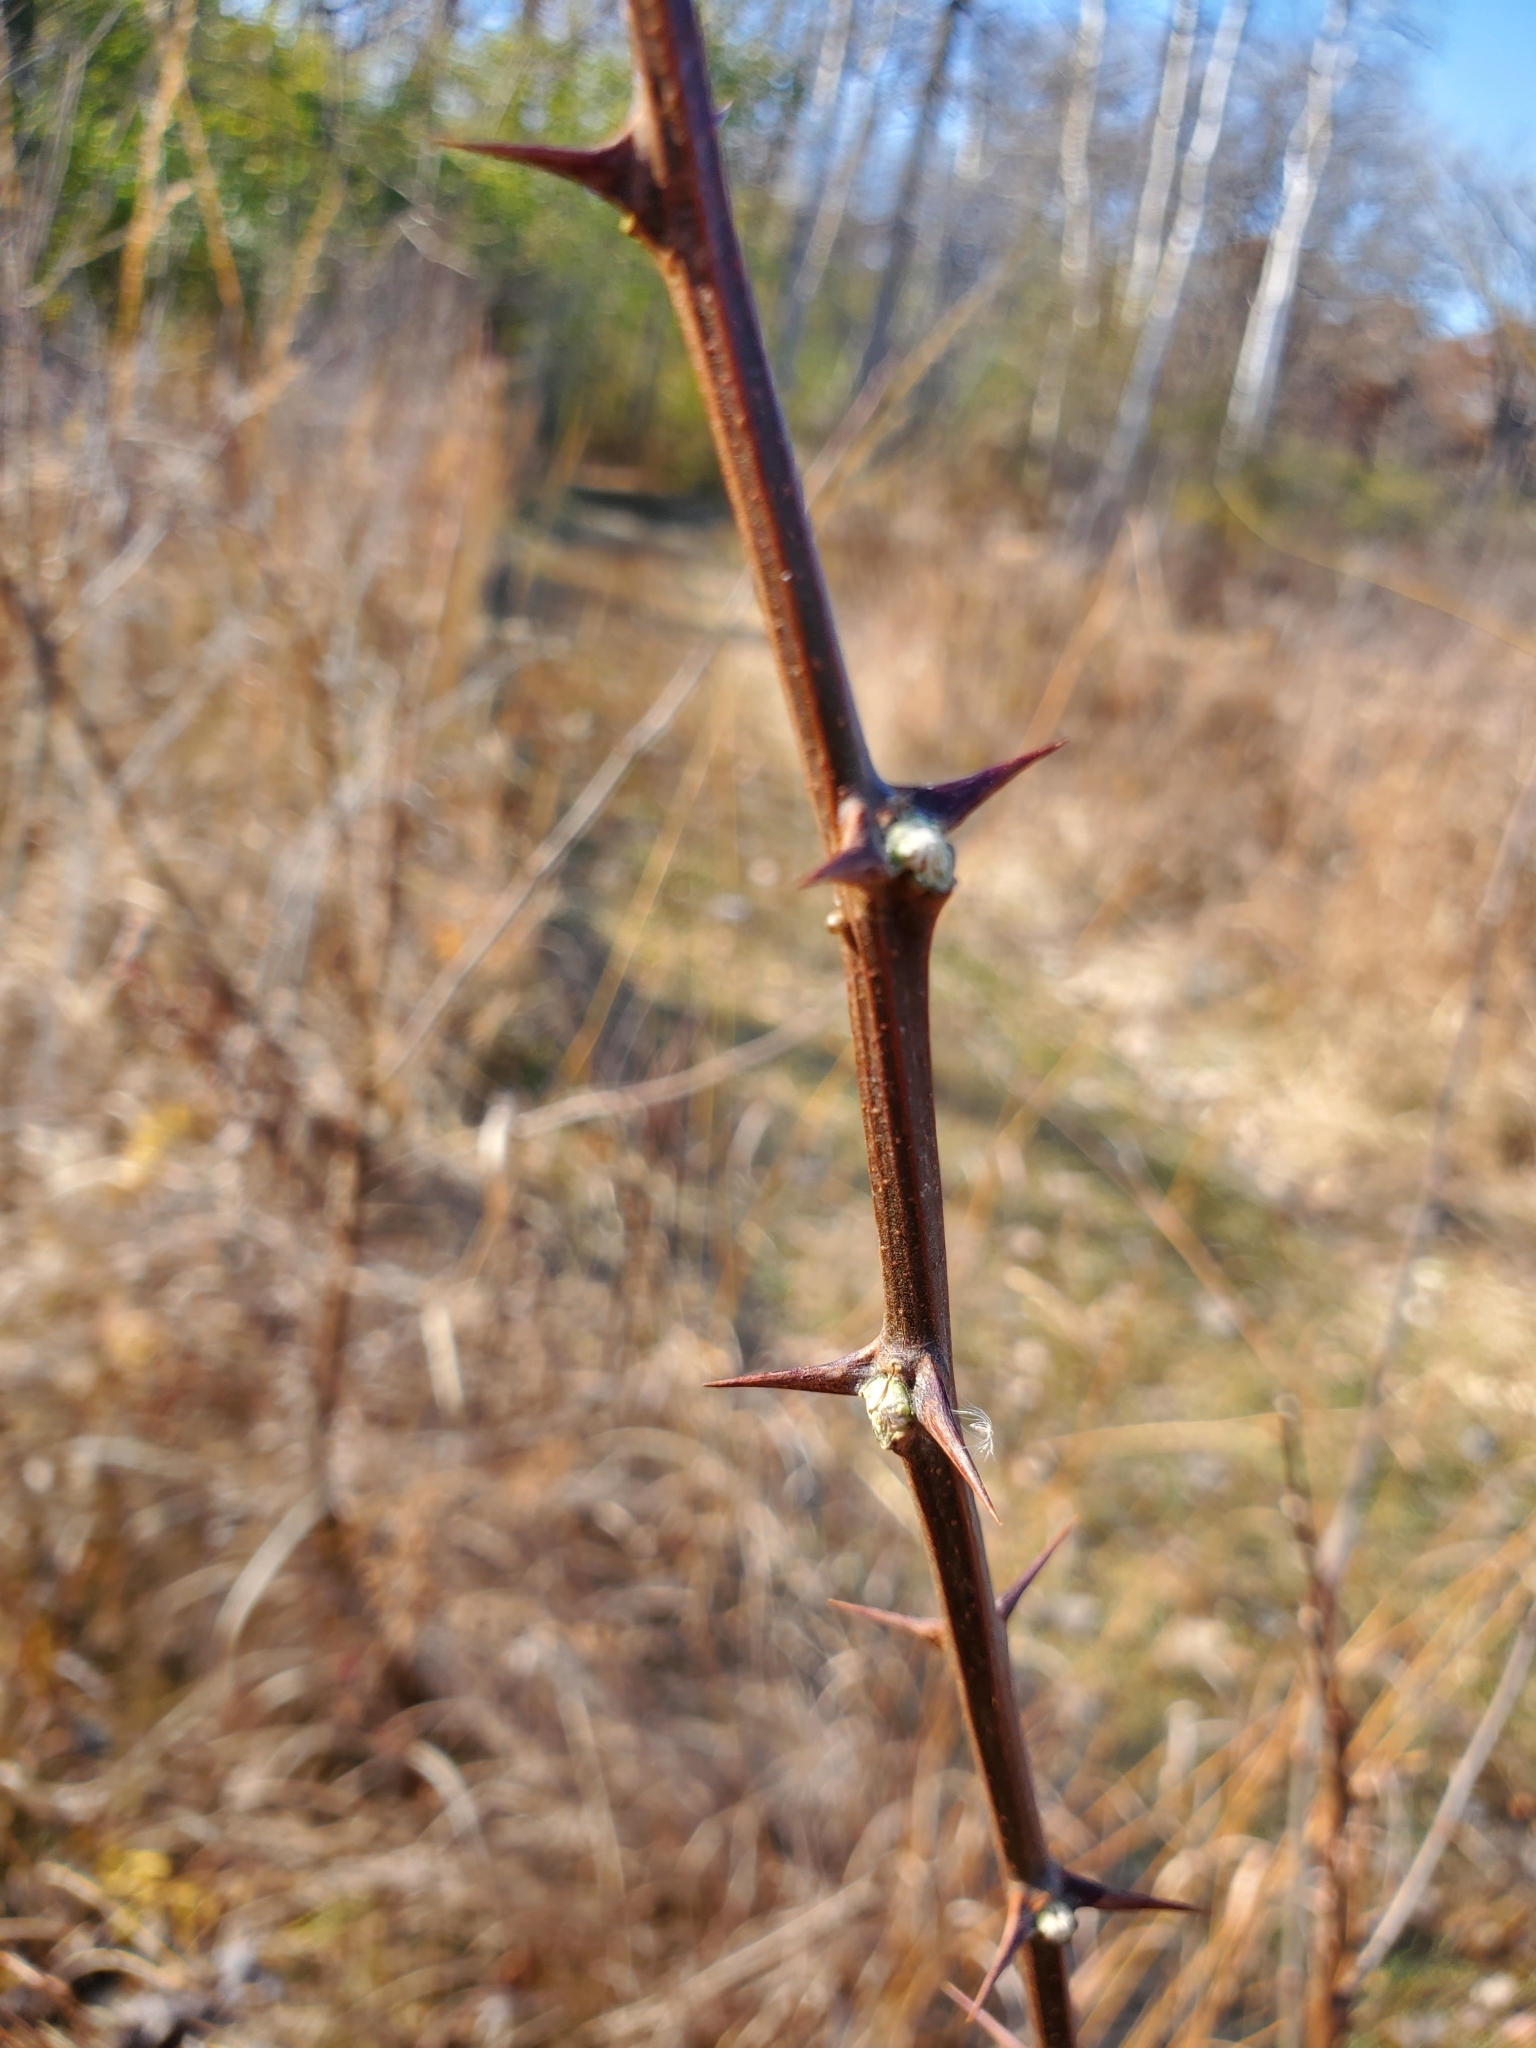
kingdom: Plantae
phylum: Tracheophyta
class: Magnoliopsida
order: Fabales
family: Fabaceae
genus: Robinia
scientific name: Robinia pseudoacacia
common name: Black locust
